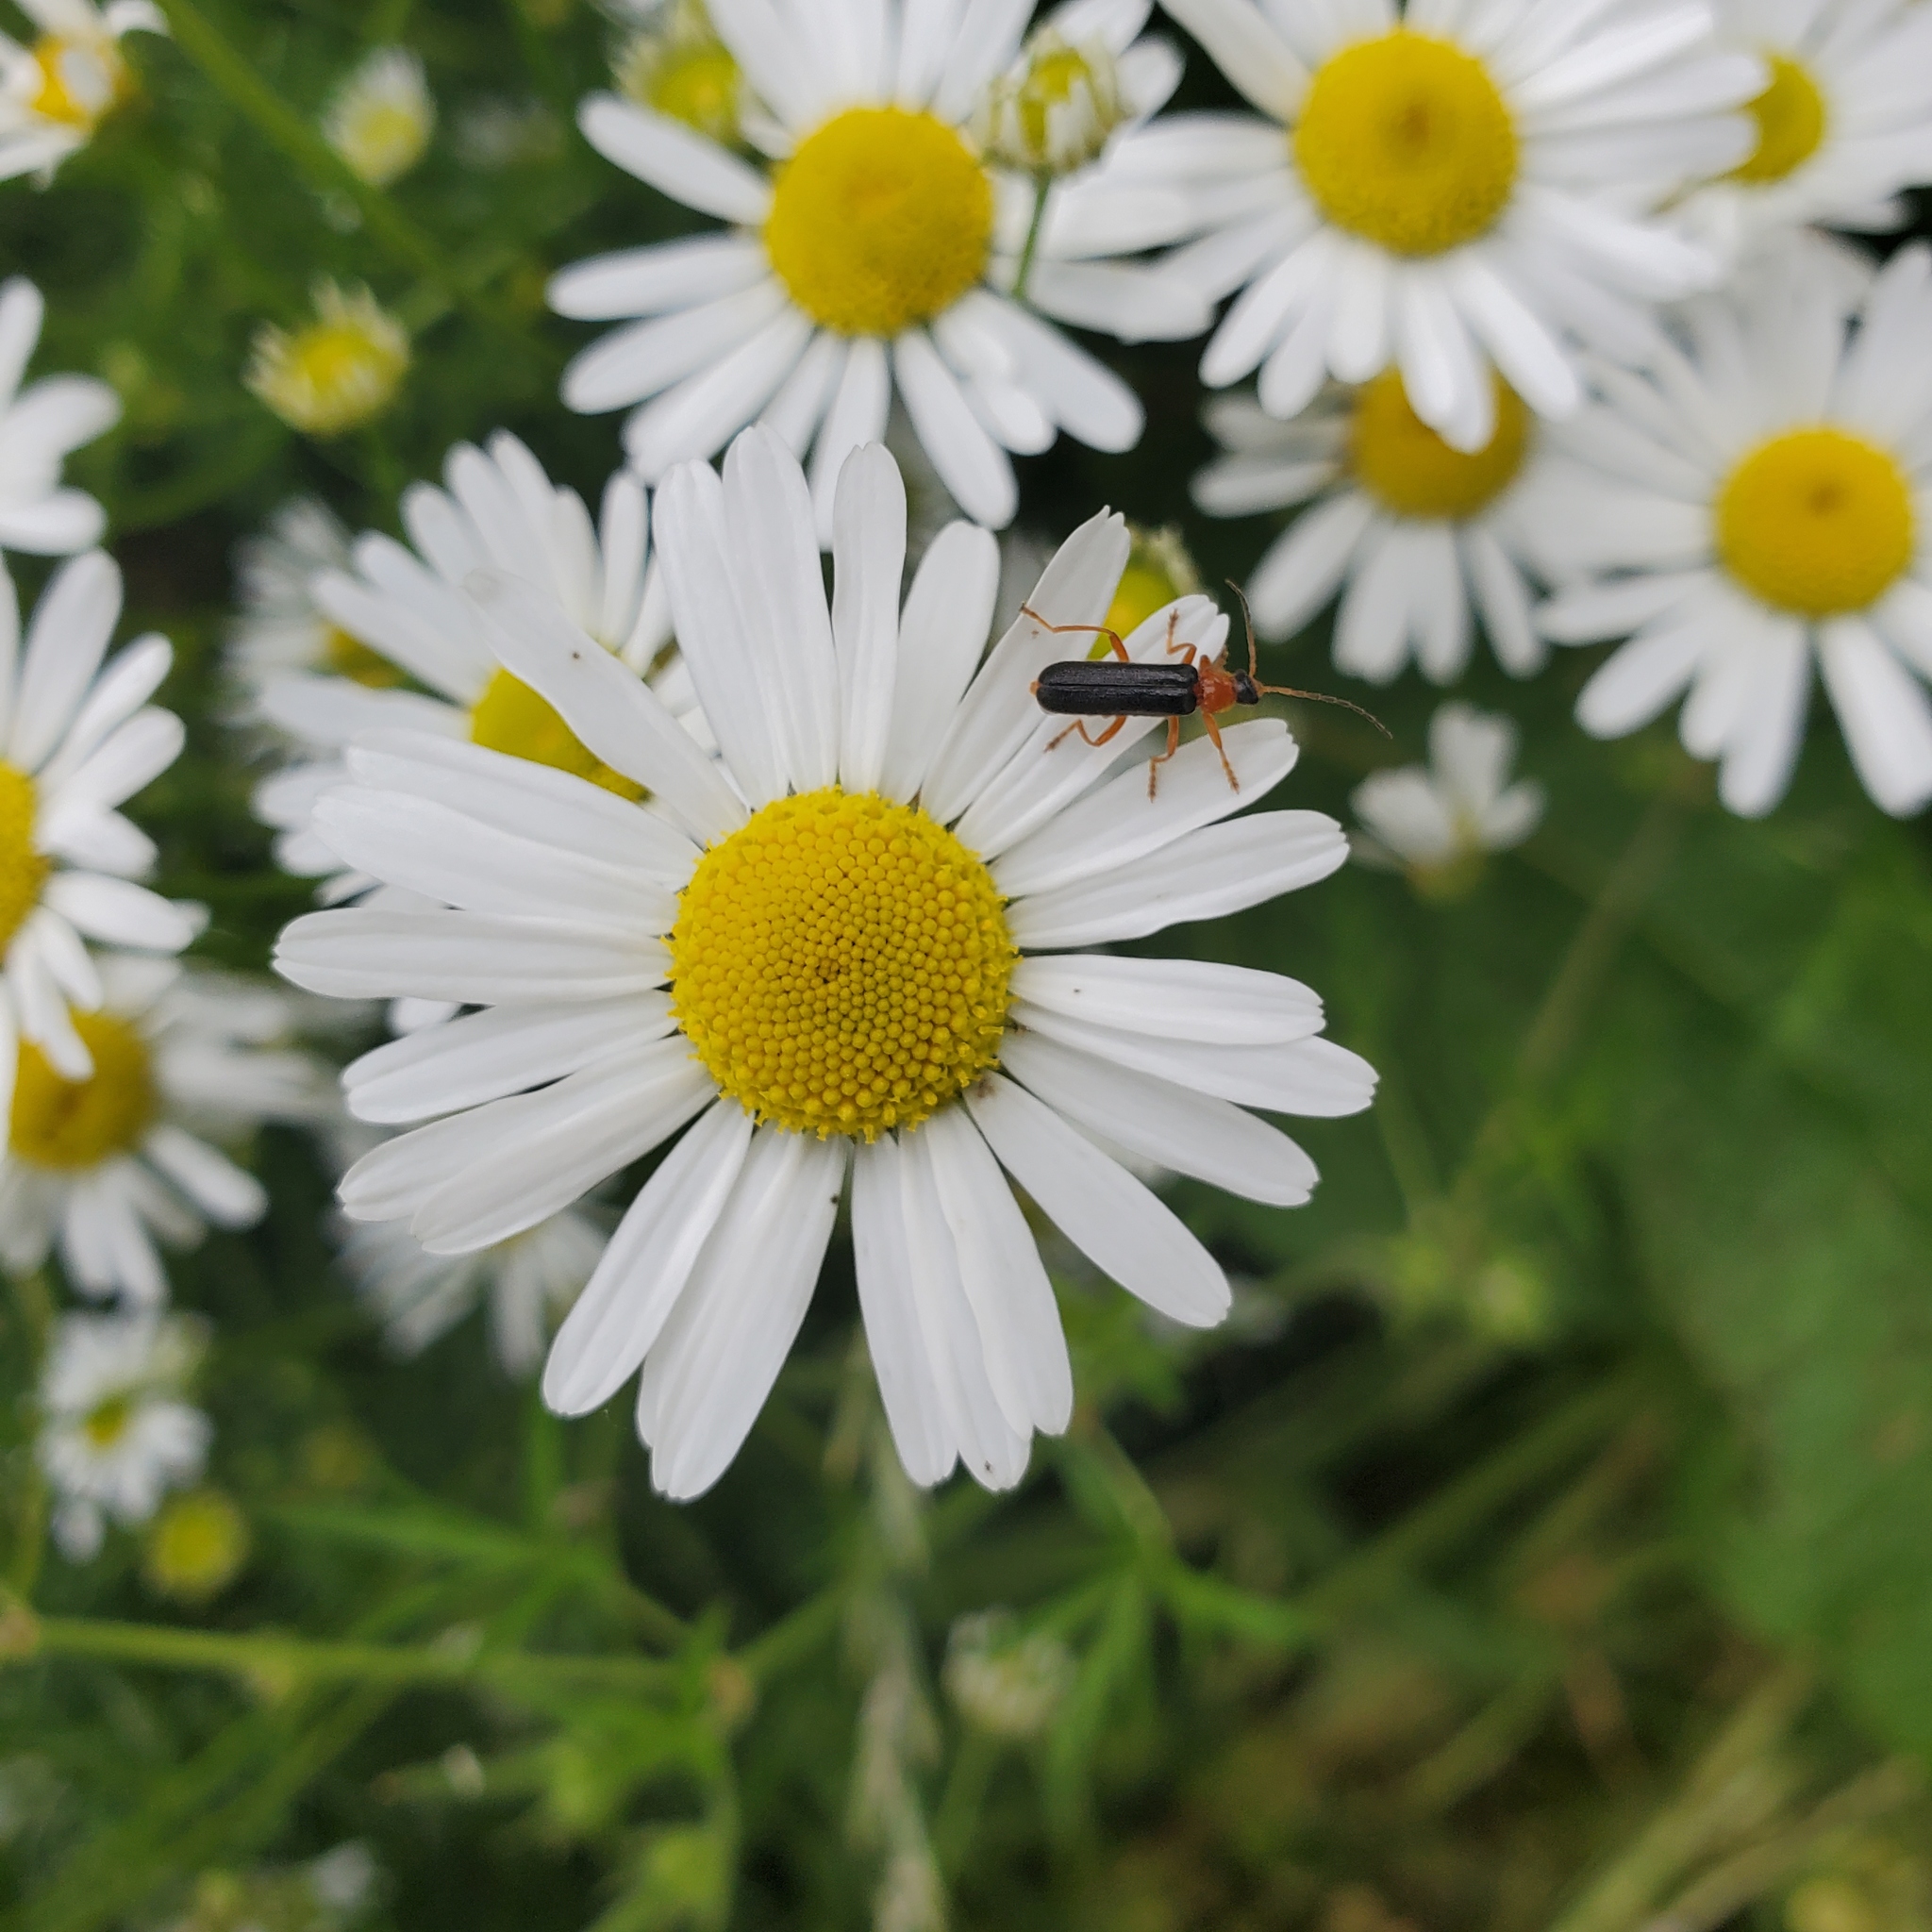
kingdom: Animalia
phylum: Arthropoda
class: Insecta
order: Coleoptera
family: Cantharidae
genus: Cantharis
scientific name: Cantharis nigra
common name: Cantharid beetle
